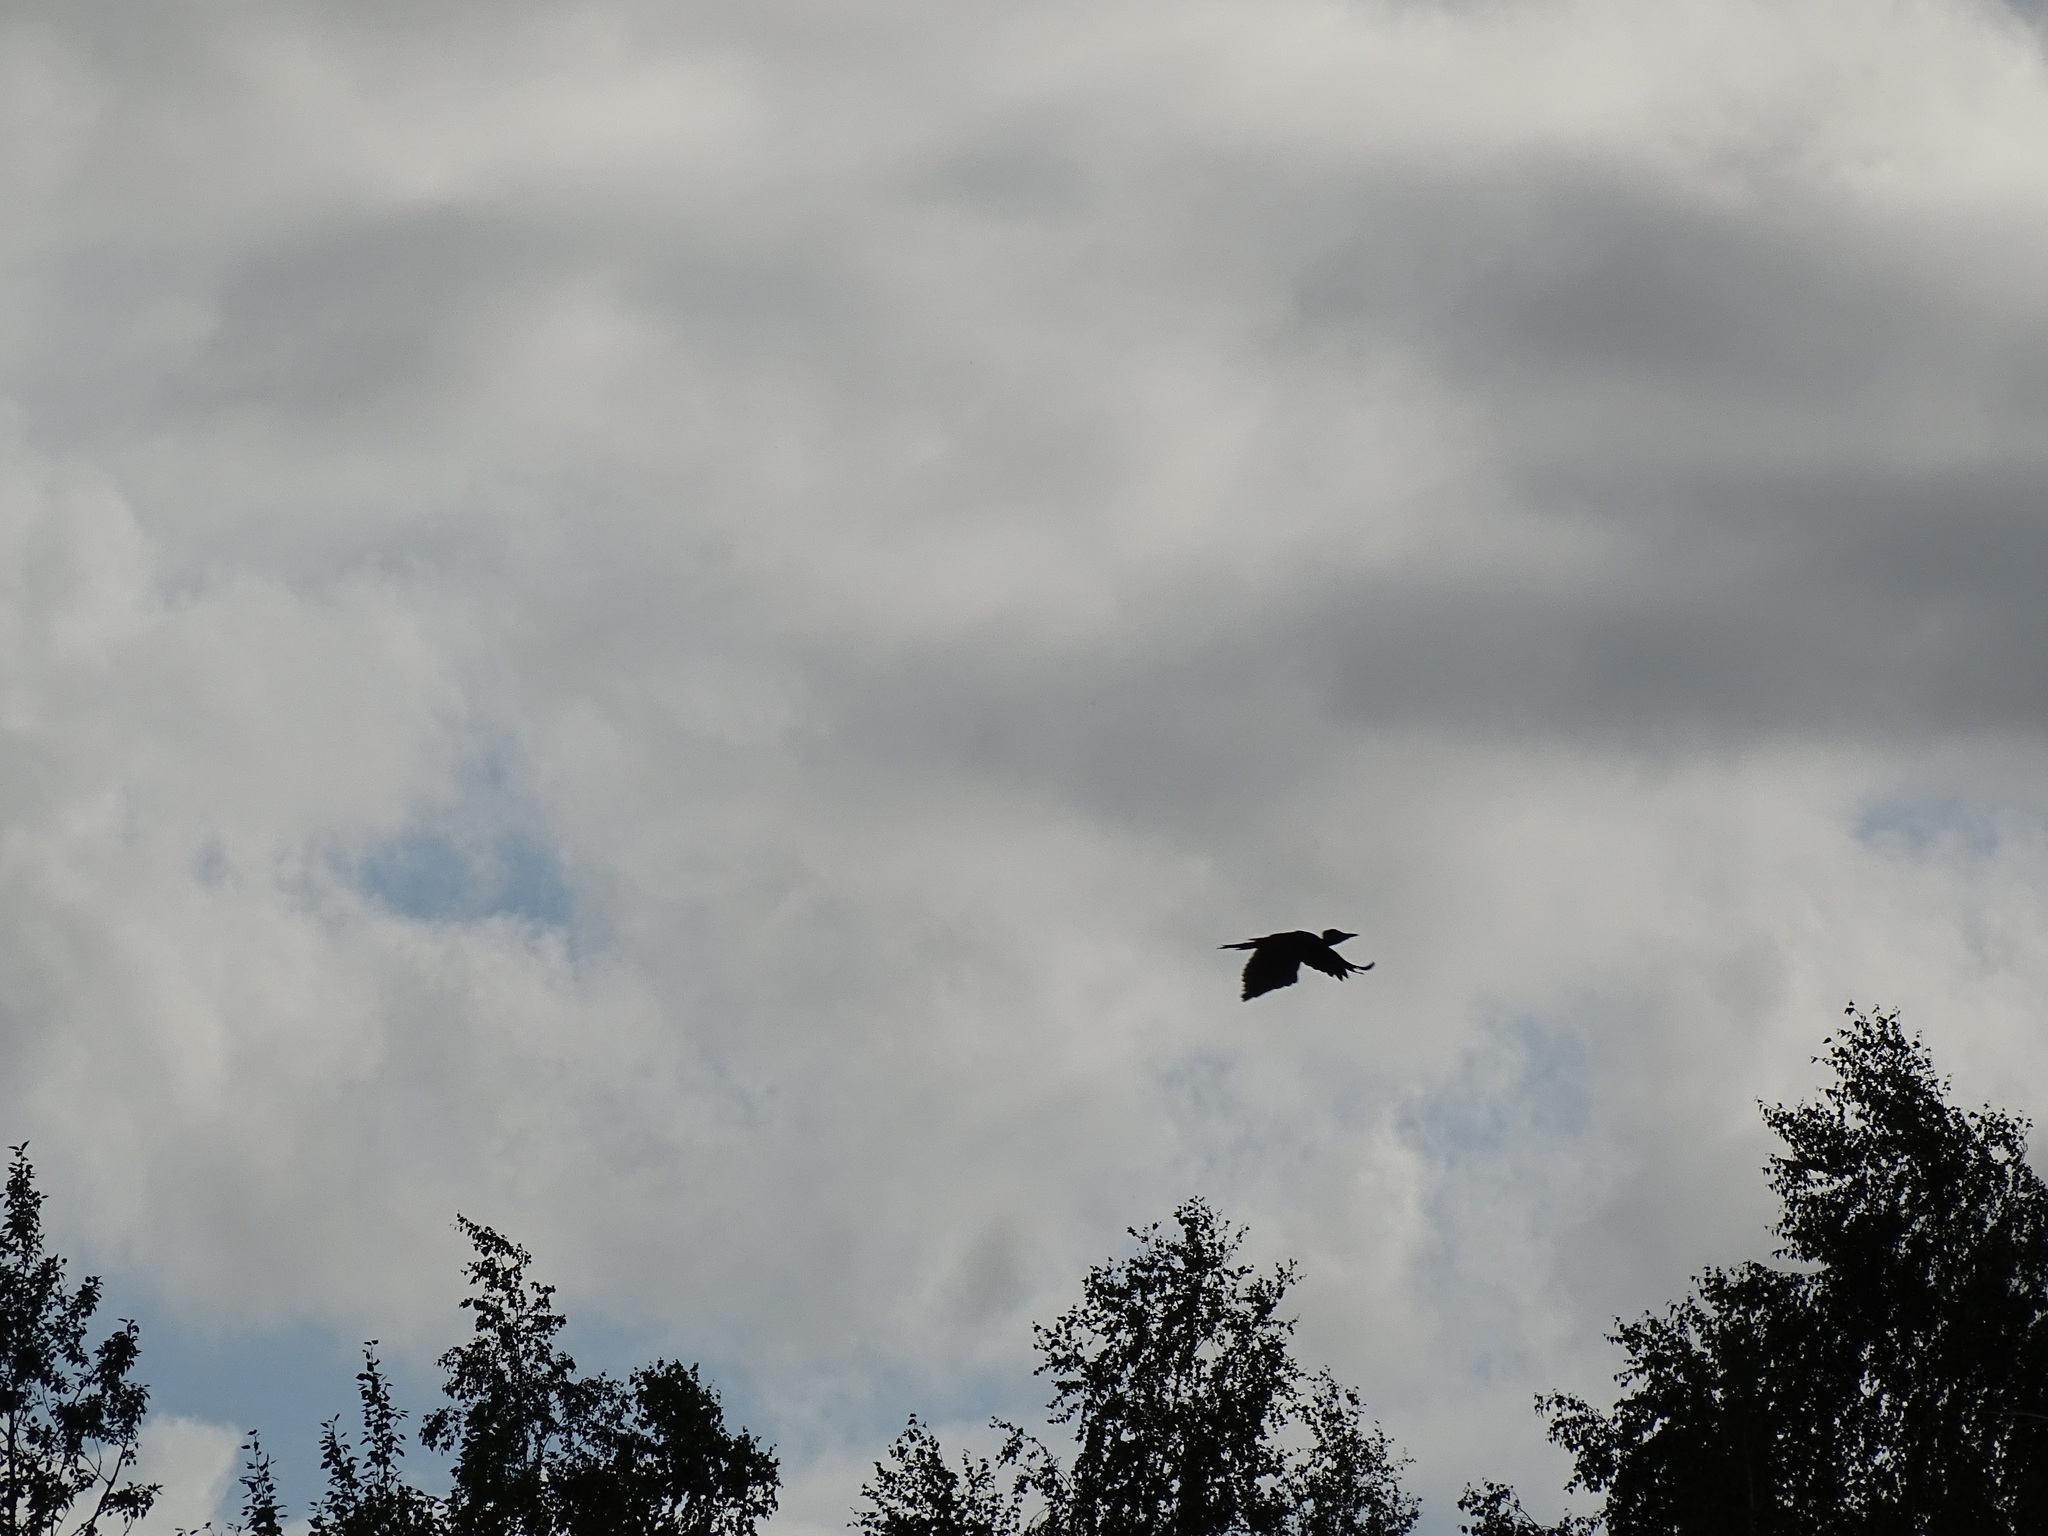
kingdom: Animalia
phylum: Chordata
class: Aves
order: Piciformes
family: Picidae
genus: Dryocopus
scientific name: Dryocopus martius
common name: Black woodpecker
